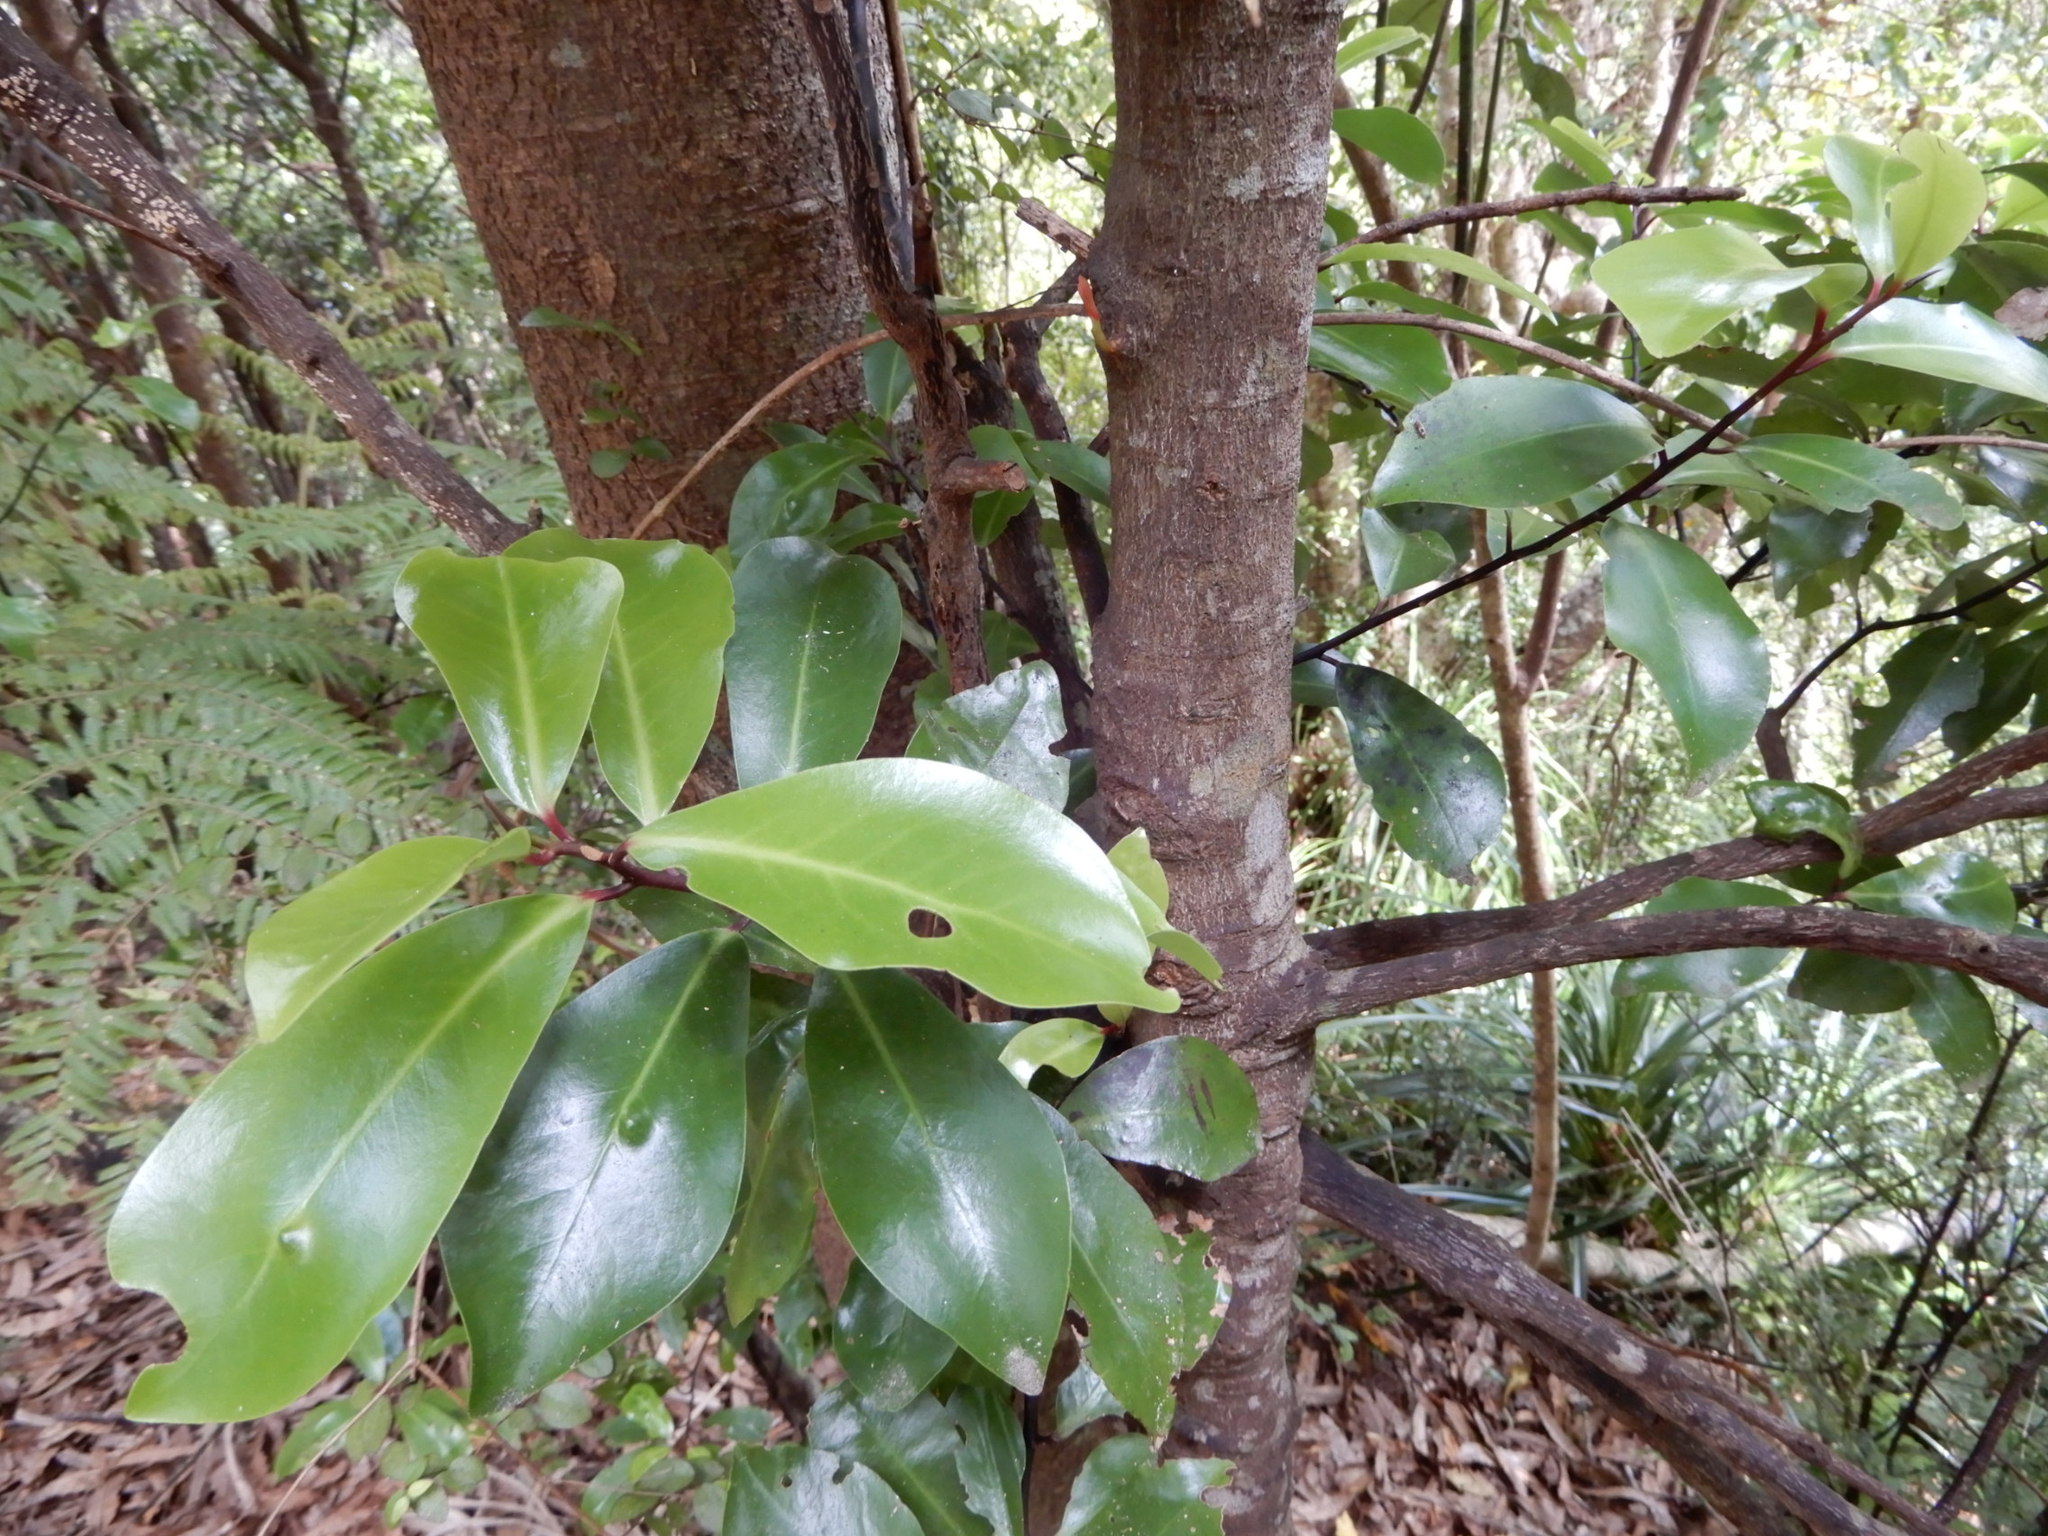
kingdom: Plantae
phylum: Tracheophyta
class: Magnoliopsida
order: Canellales
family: Winteraceae
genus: Pseudowintera
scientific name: Pseudowintera axillaris
